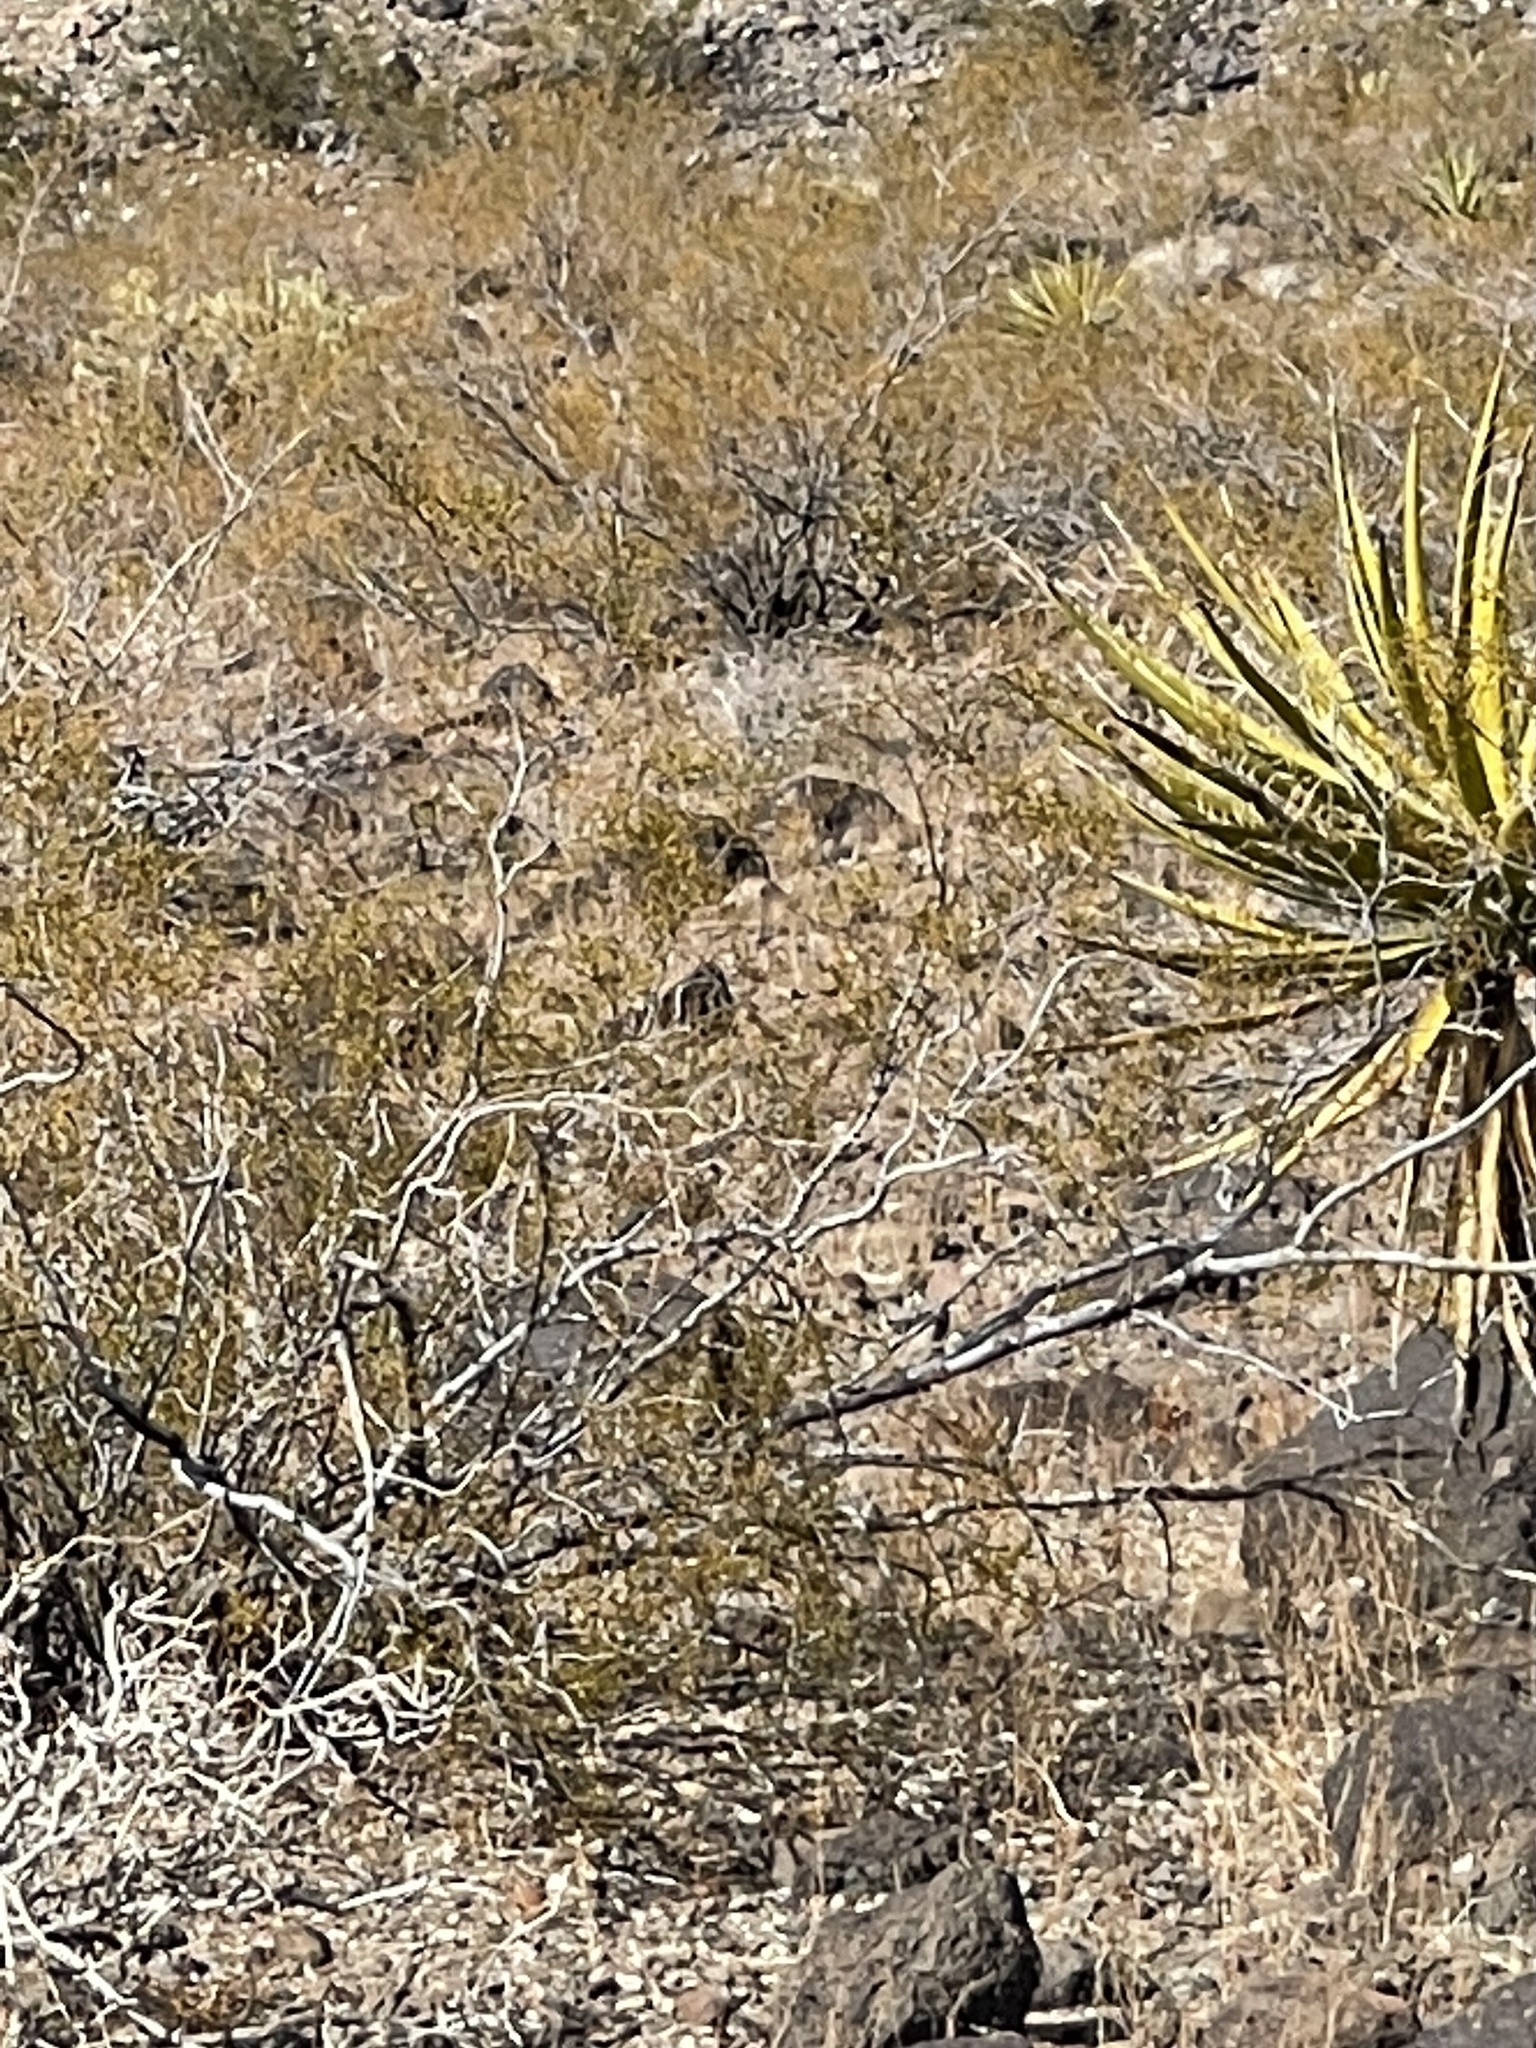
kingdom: Plantae
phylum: Tracheophyta
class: Magnoliopsida
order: Zygophyllales
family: Zygophyllaceae
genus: Larrea
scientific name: Larrea tridentata
